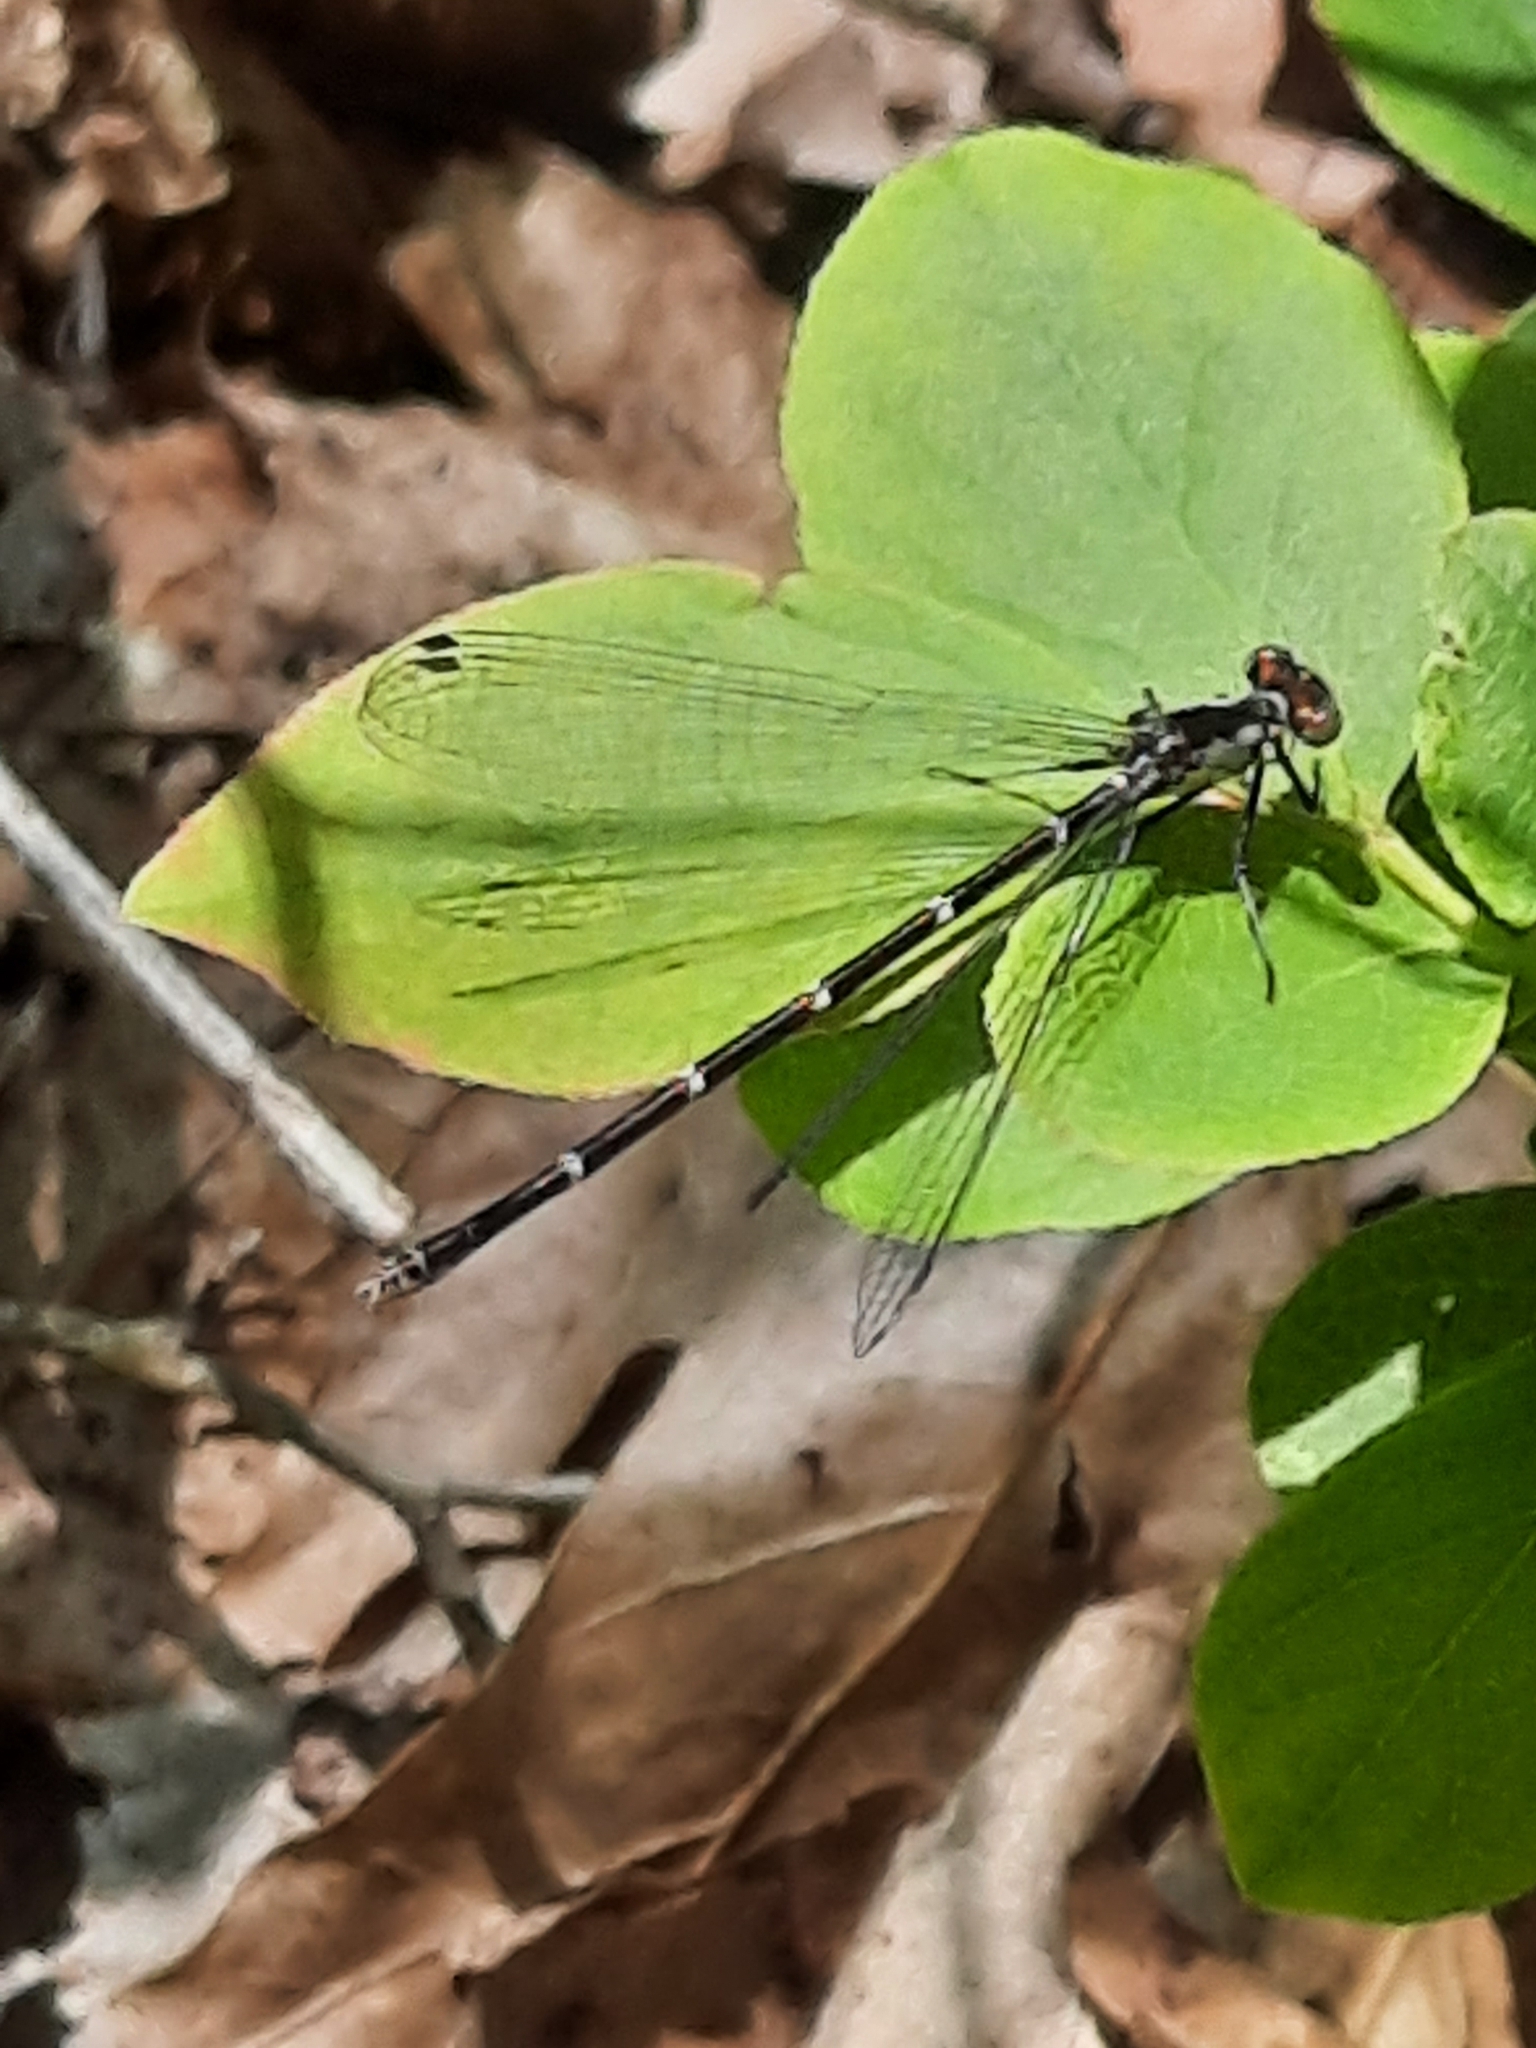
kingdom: Animalia
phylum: Arthropoda
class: Insecta
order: Odonata
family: Coenagrionidae
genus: Chromagrion
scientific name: Chromagrion conditum
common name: Aurora damsel
